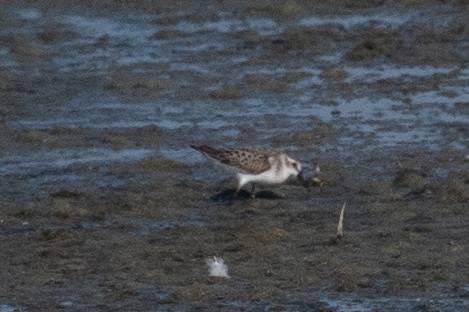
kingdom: Animalia
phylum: Chordata
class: Aves
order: Charadriiformes
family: Scolopacidae
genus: Calidris
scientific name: Calidris mauri
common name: Western sandpiper
